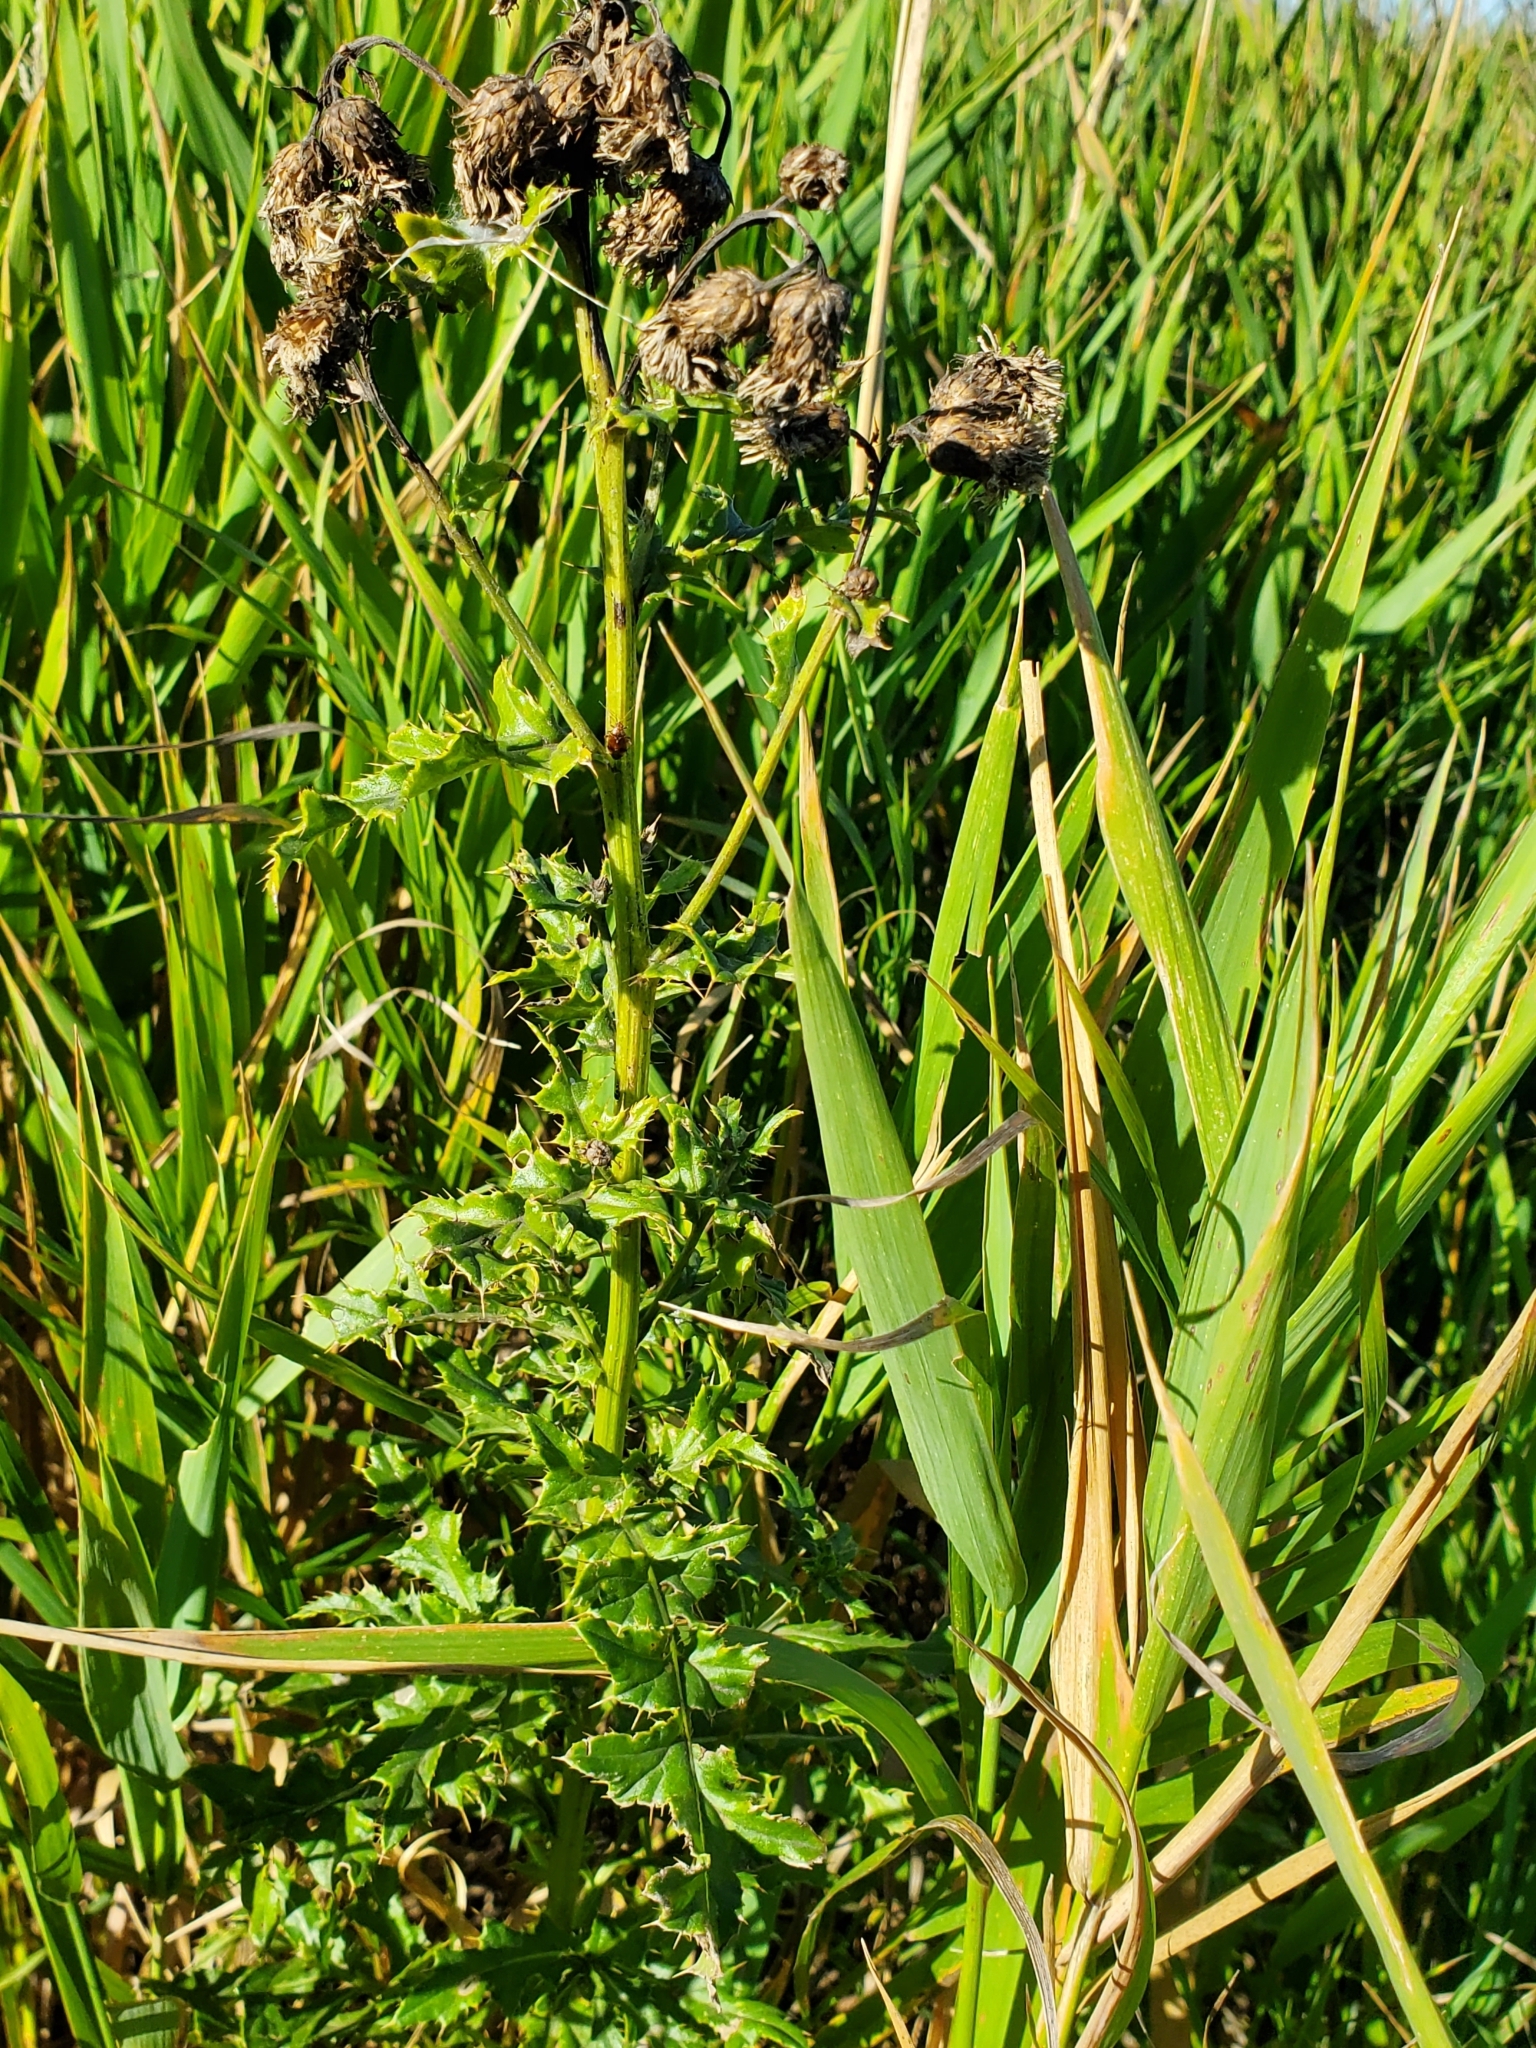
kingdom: Plantae
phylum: Tracheophyta
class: Magnoliopsida
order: Asterales
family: Asteraceae
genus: Cirsium
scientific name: Cirsium arvense
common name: Creeping thistle
